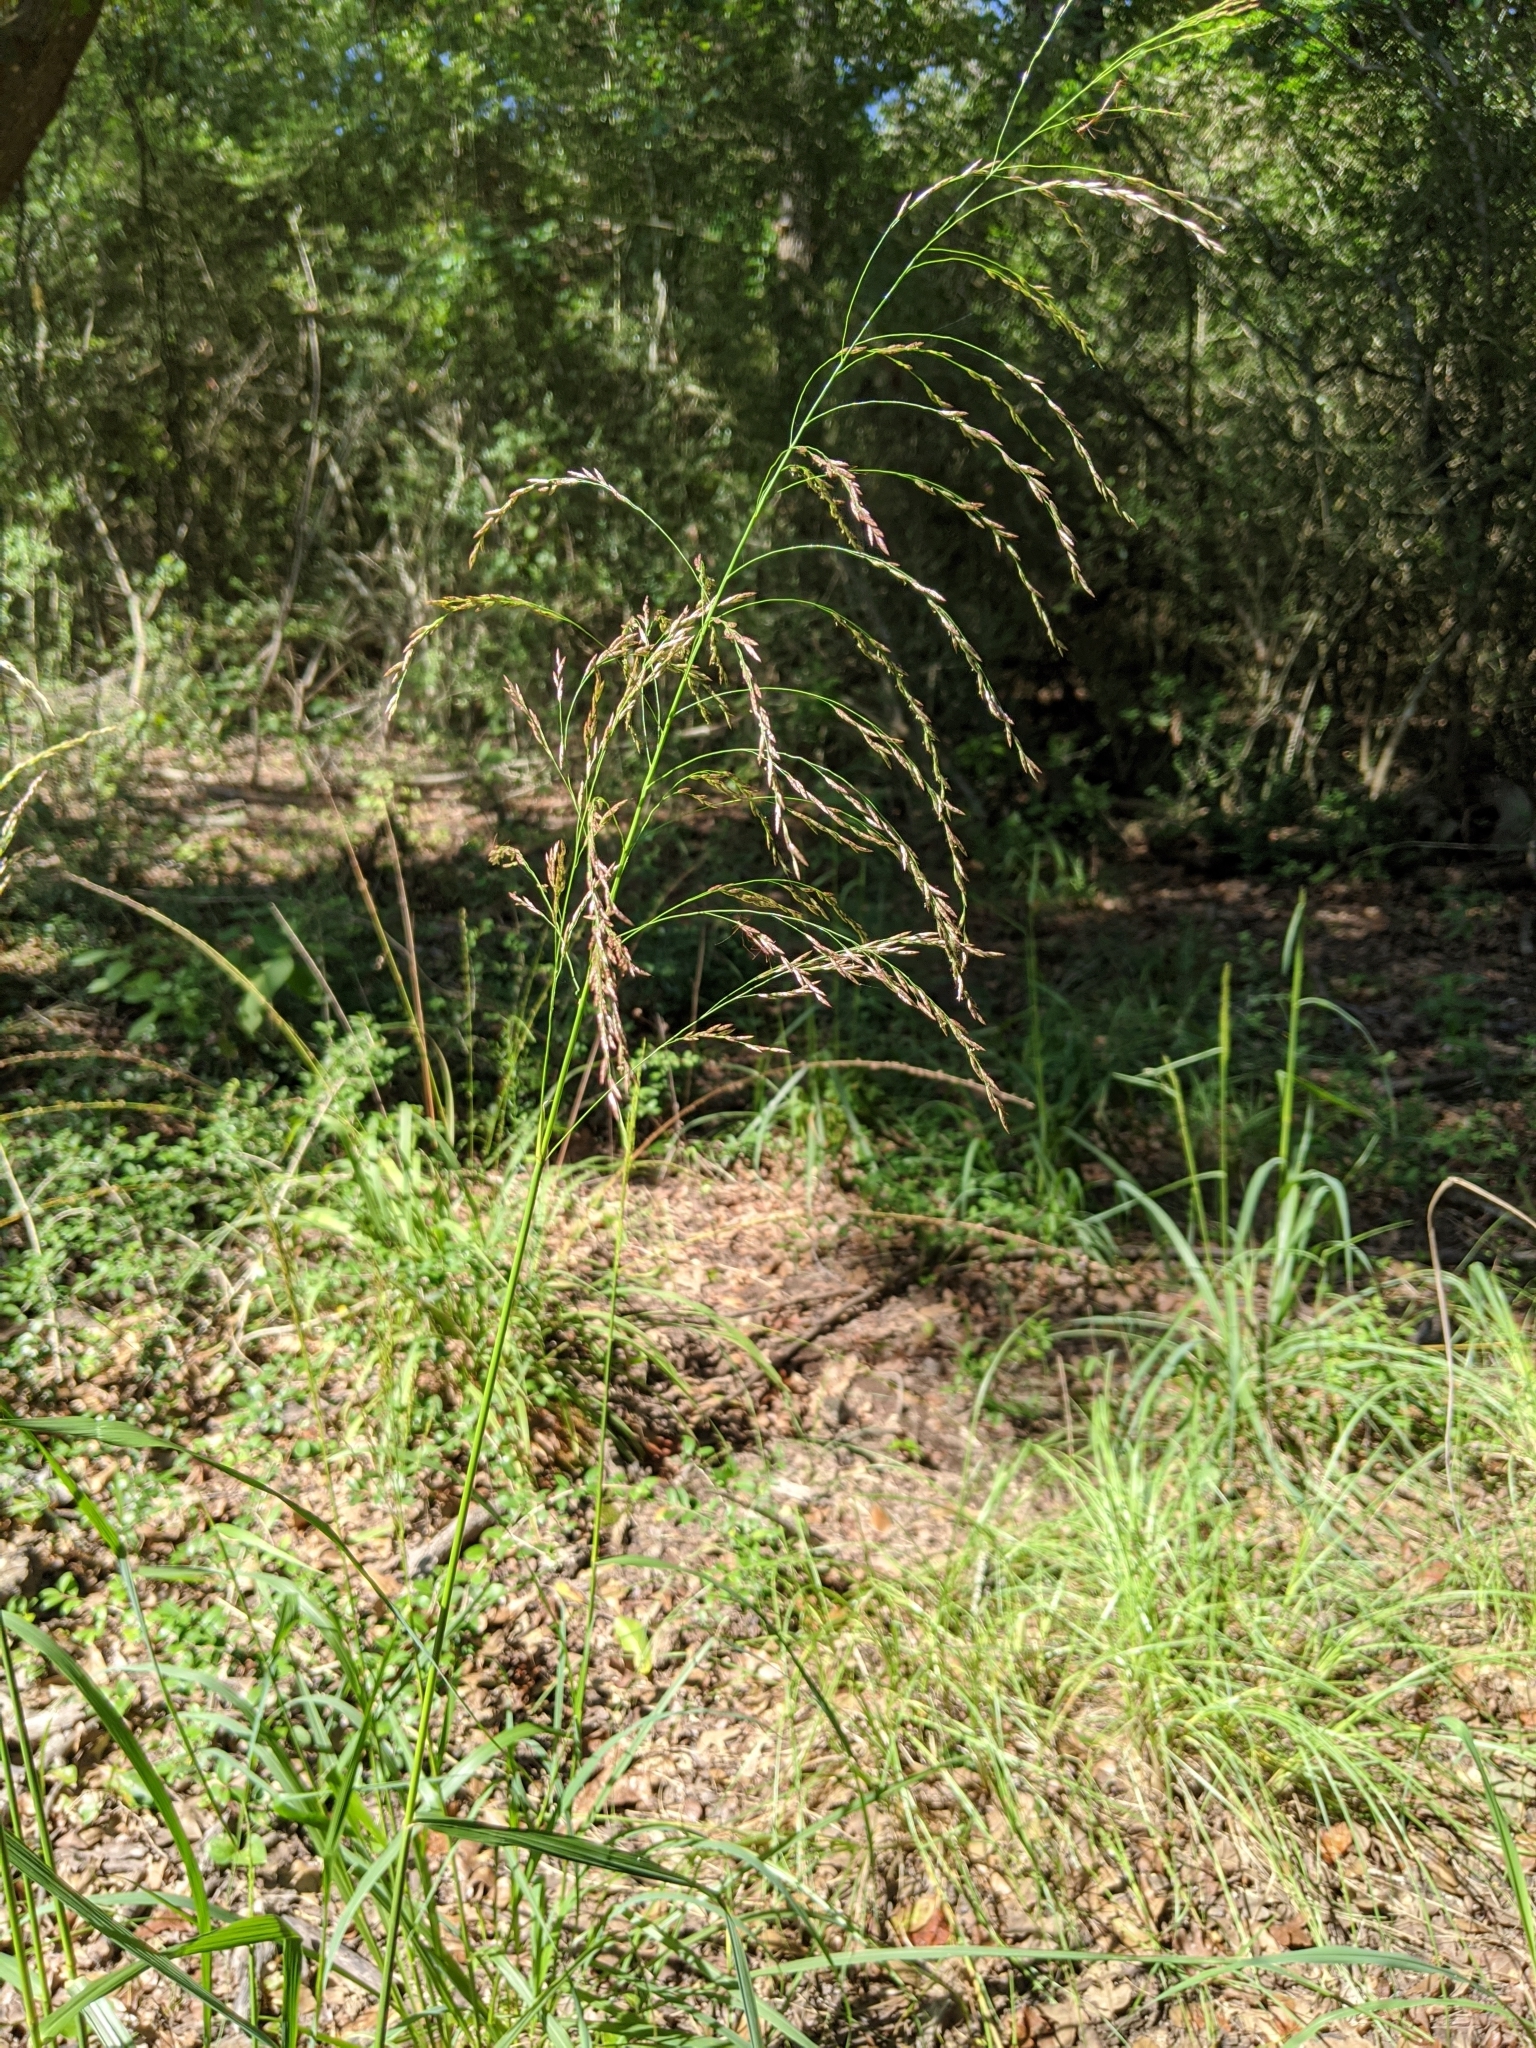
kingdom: Plantae
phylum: Tracheophyta
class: Liliopsida
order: Poales
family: Poaceae
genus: Tridens
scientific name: Tridens flavus
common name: Purpletop
